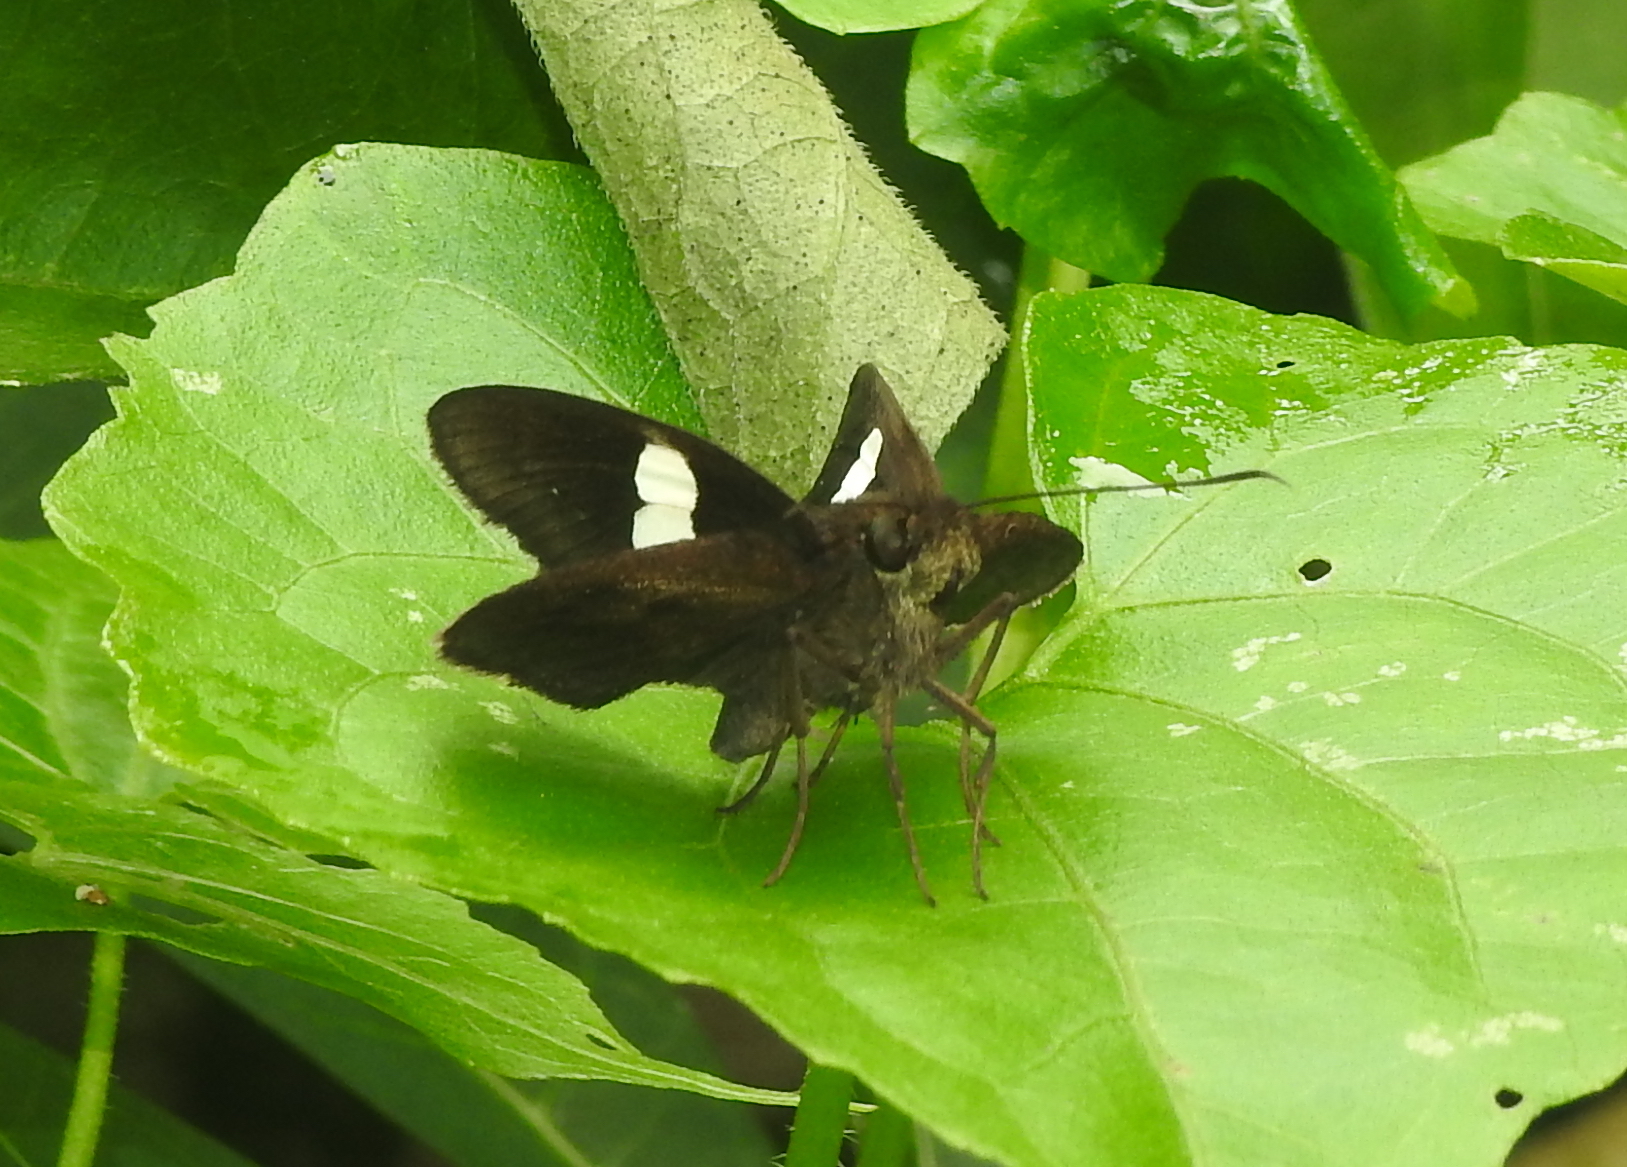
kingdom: Animalia
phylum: Arthropoda
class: Insecta
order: Lepidoptera
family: Hesperiidae
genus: Notocrypta
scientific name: Notocrypta paralysos
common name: Common banded demon
